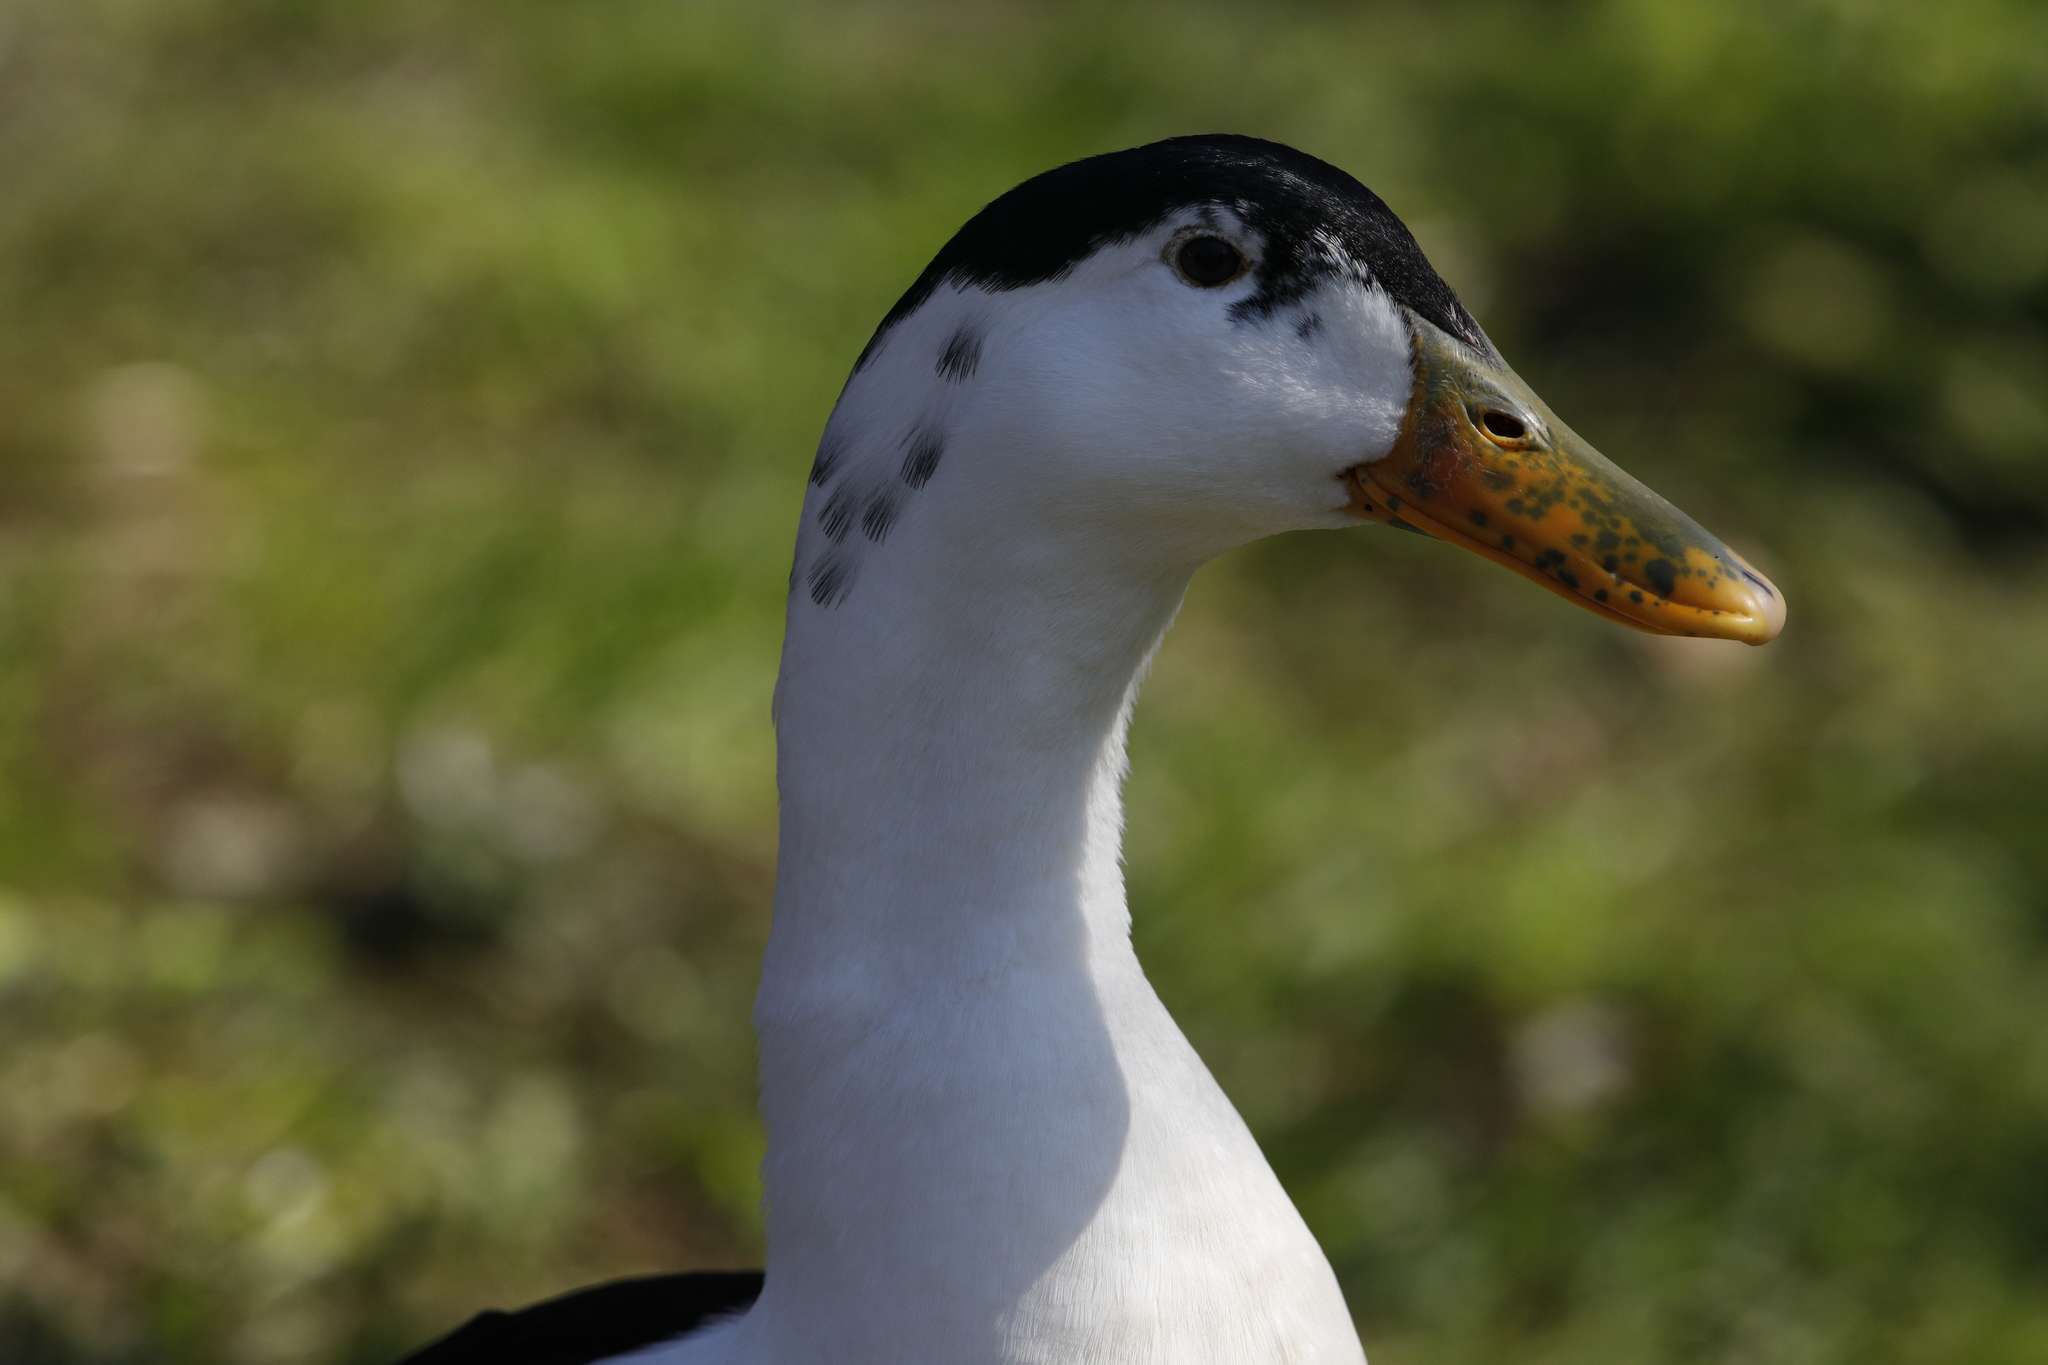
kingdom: Animalia
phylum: Chordata
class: Aves
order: Anseriformes
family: Anatidae
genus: Anas
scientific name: Anas platyrhynchos
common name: Mallard
